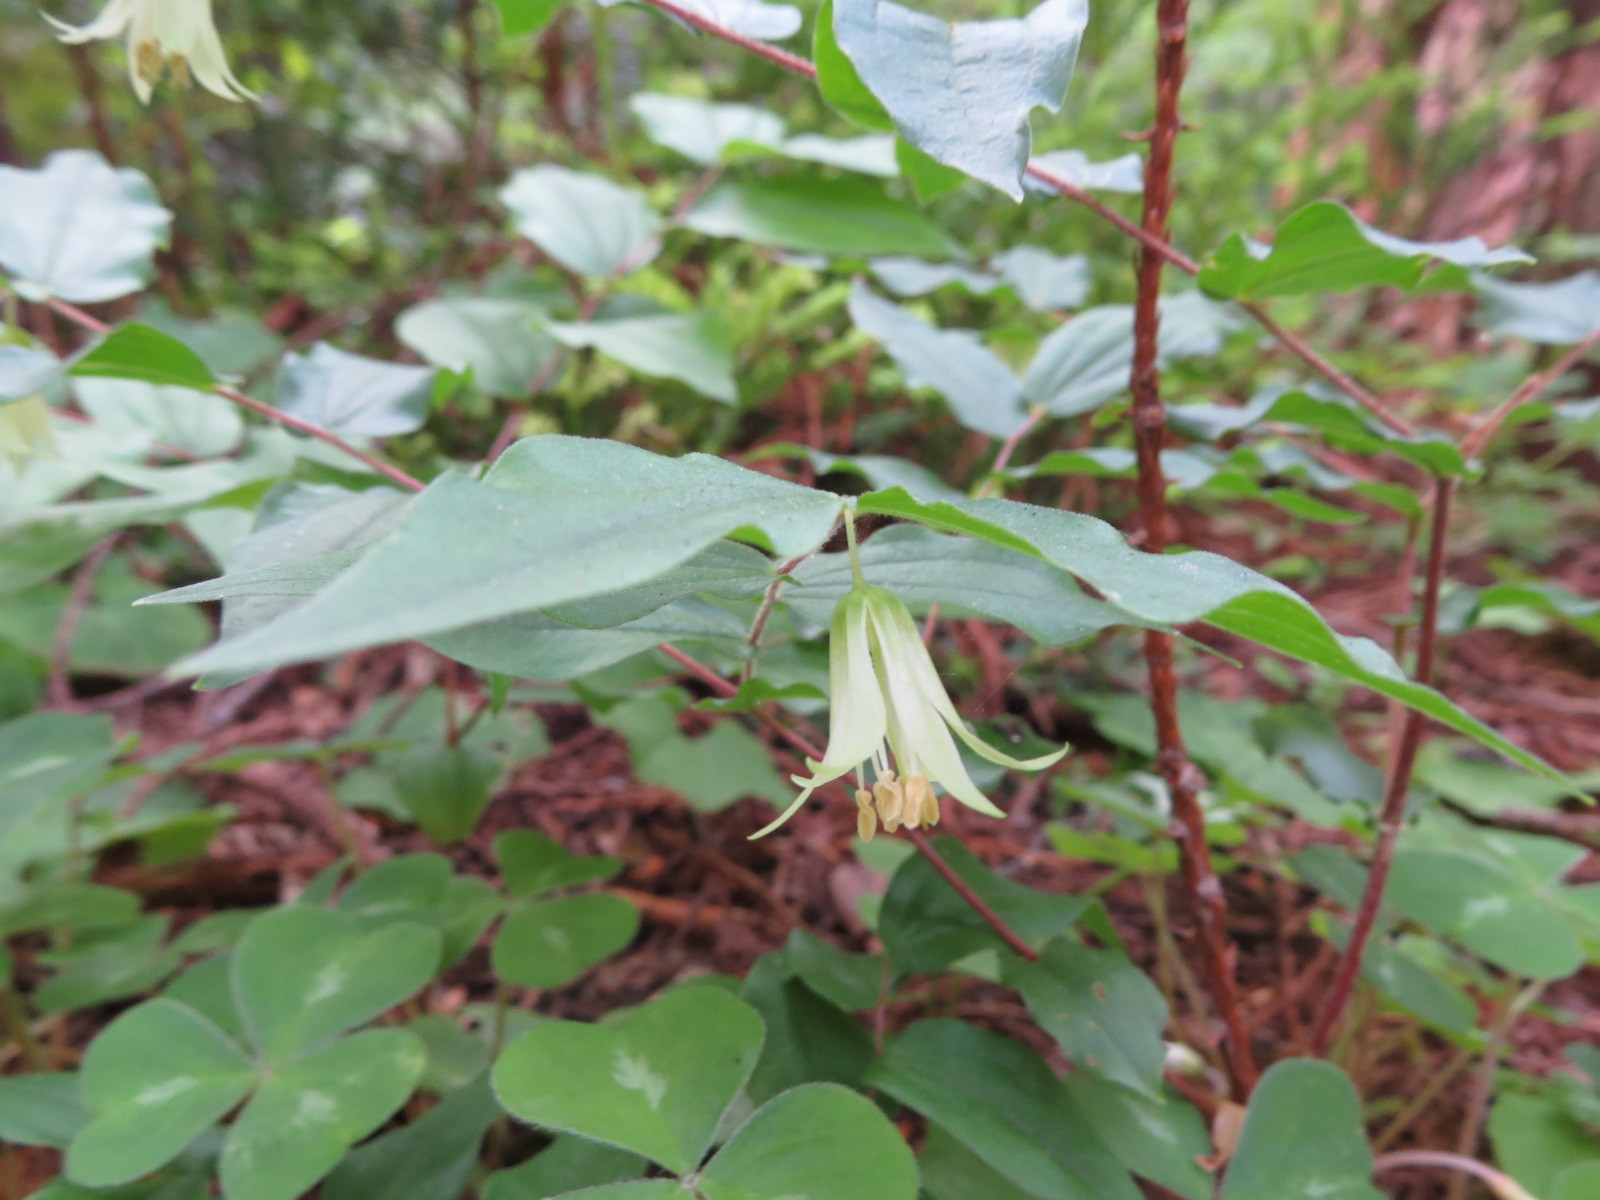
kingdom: Plantae
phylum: Tracheophyta
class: Liliopsida
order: Liliales
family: Liliaceae
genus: Prosartes
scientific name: Prosartes hookeri
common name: Fairy-bells
